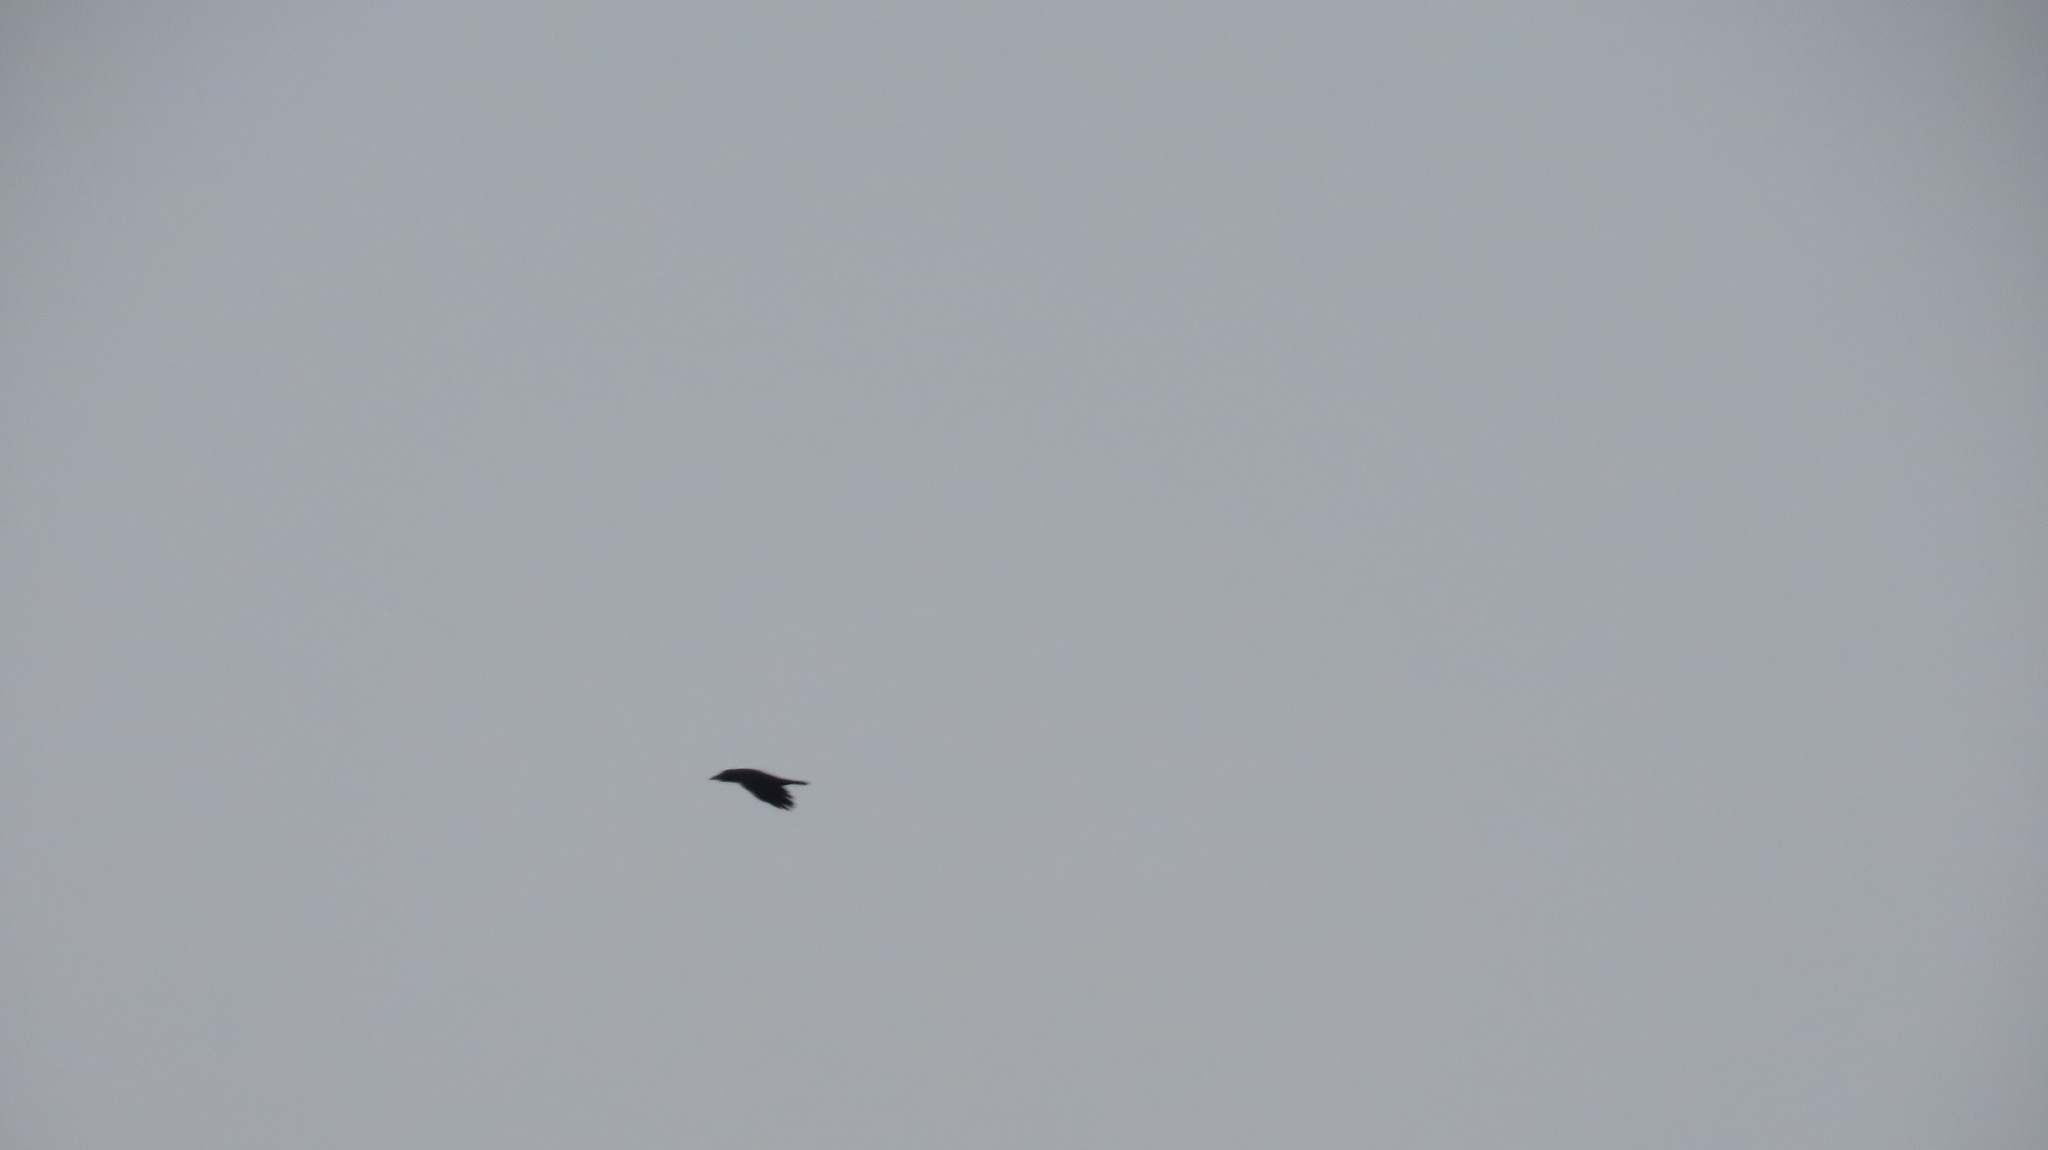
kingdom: Animalia
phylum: Chordata
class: Aves
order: Passeriformes
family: Corvidae
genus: Corvus
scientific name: Corvus splendens
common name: House crow
